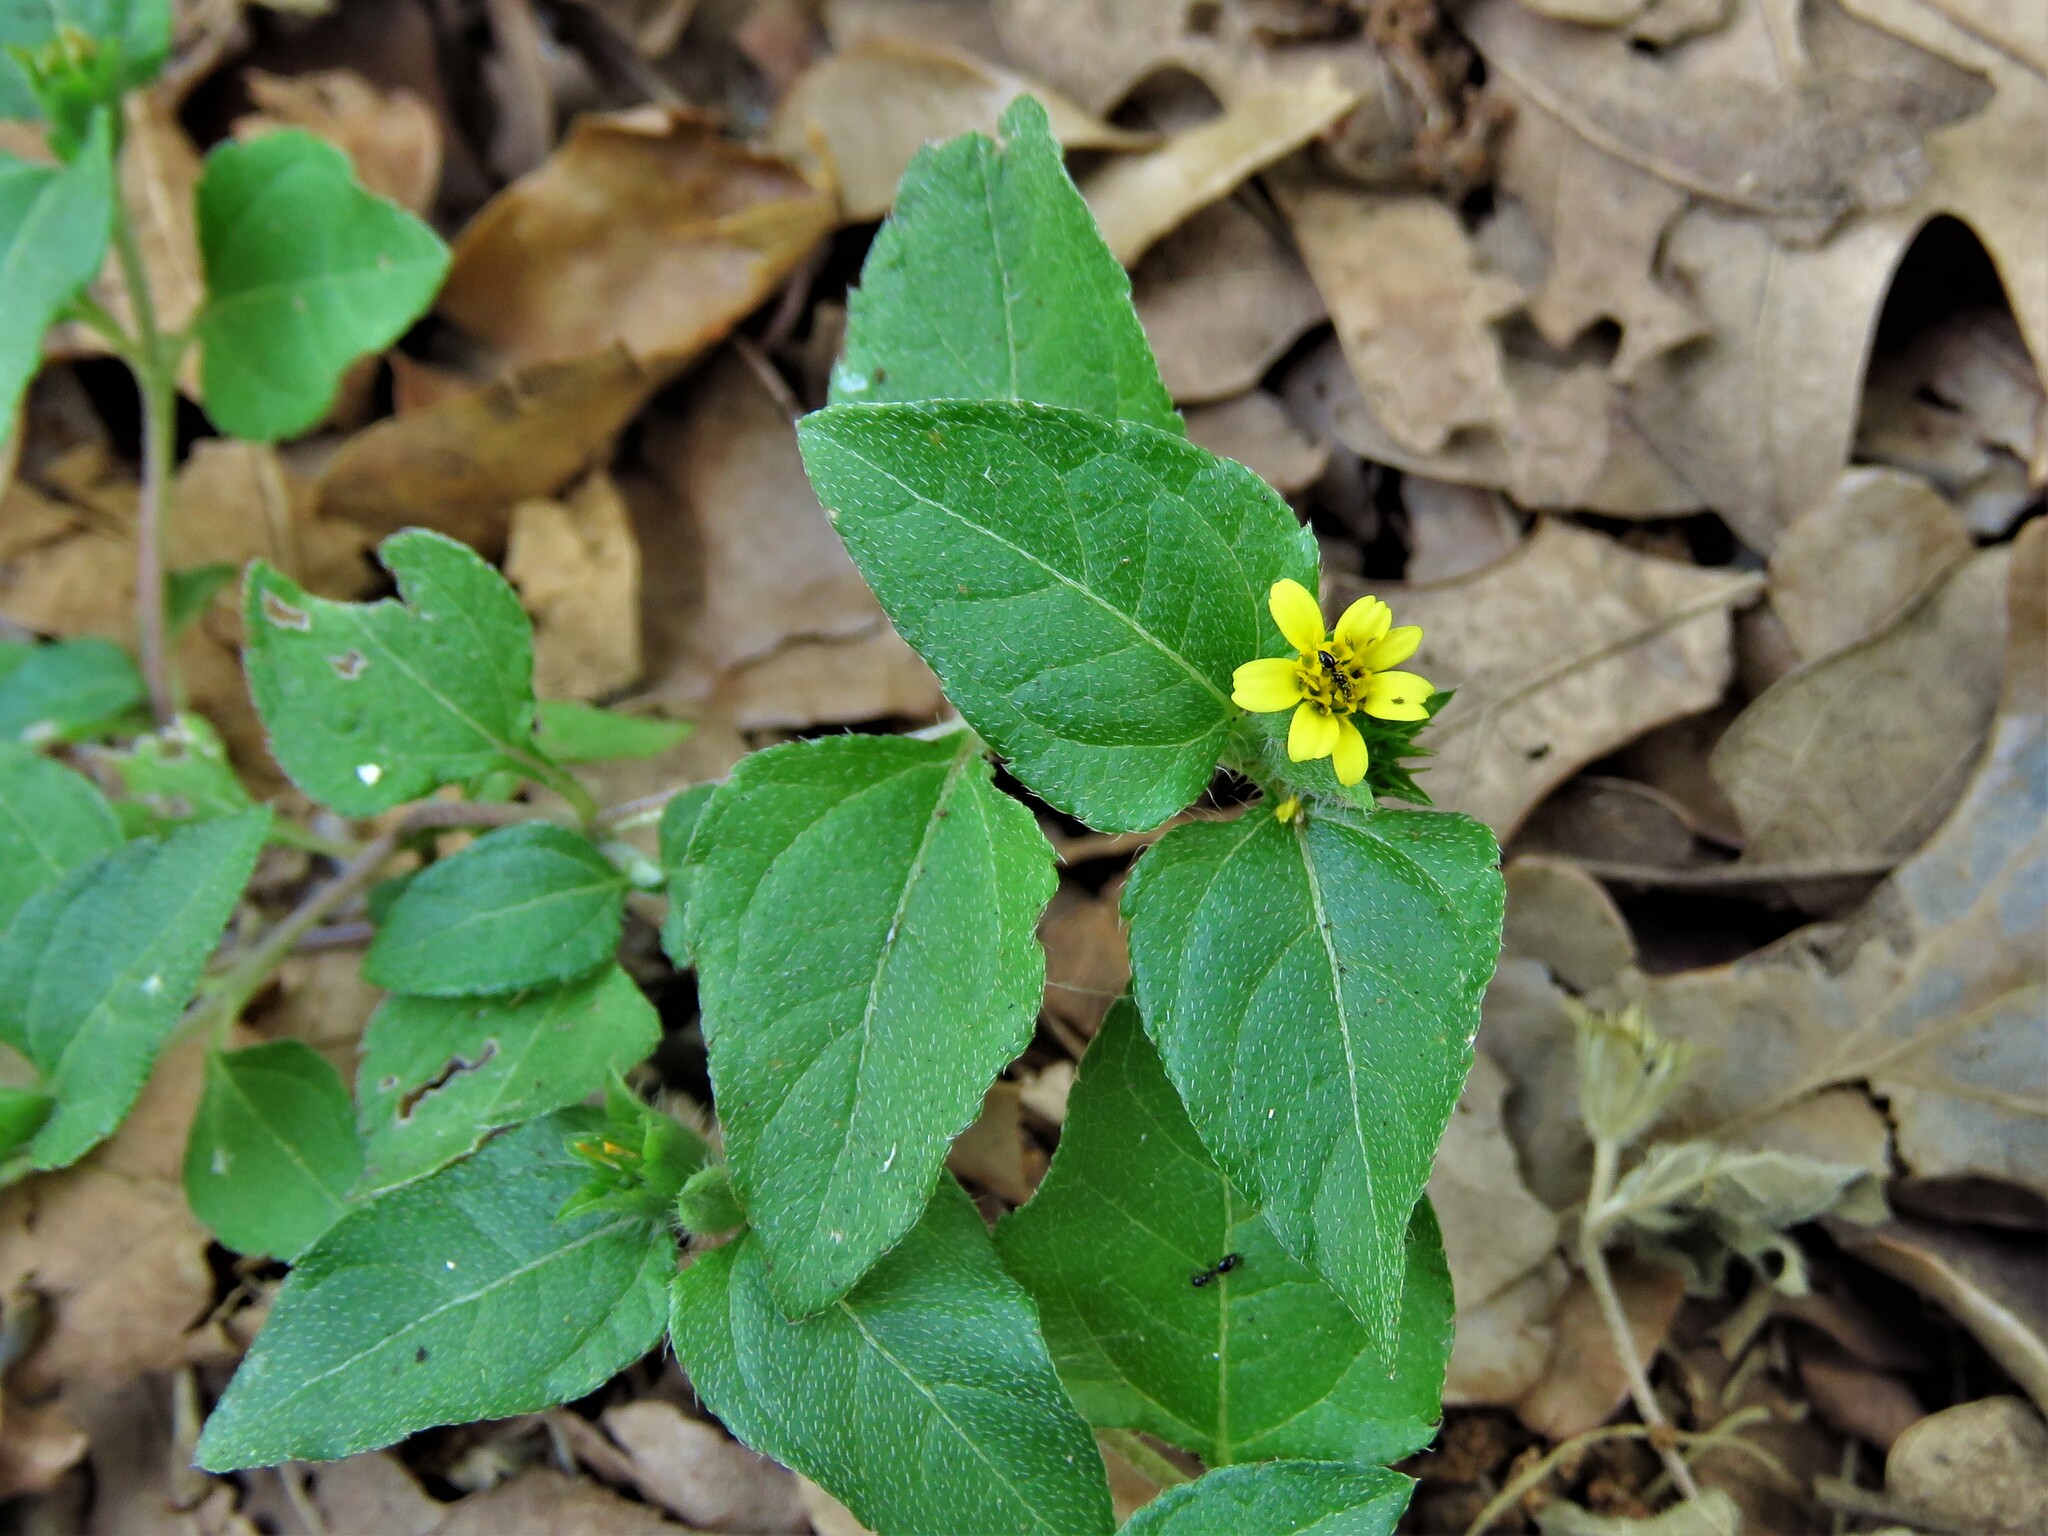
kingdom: Plantae
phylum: Tracheophyta
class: Magnoliopsida
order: Asterales
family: Asteraceae
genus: Calyptocarpus
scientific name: Calyptocarpus vialis
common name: Straggler daisy
